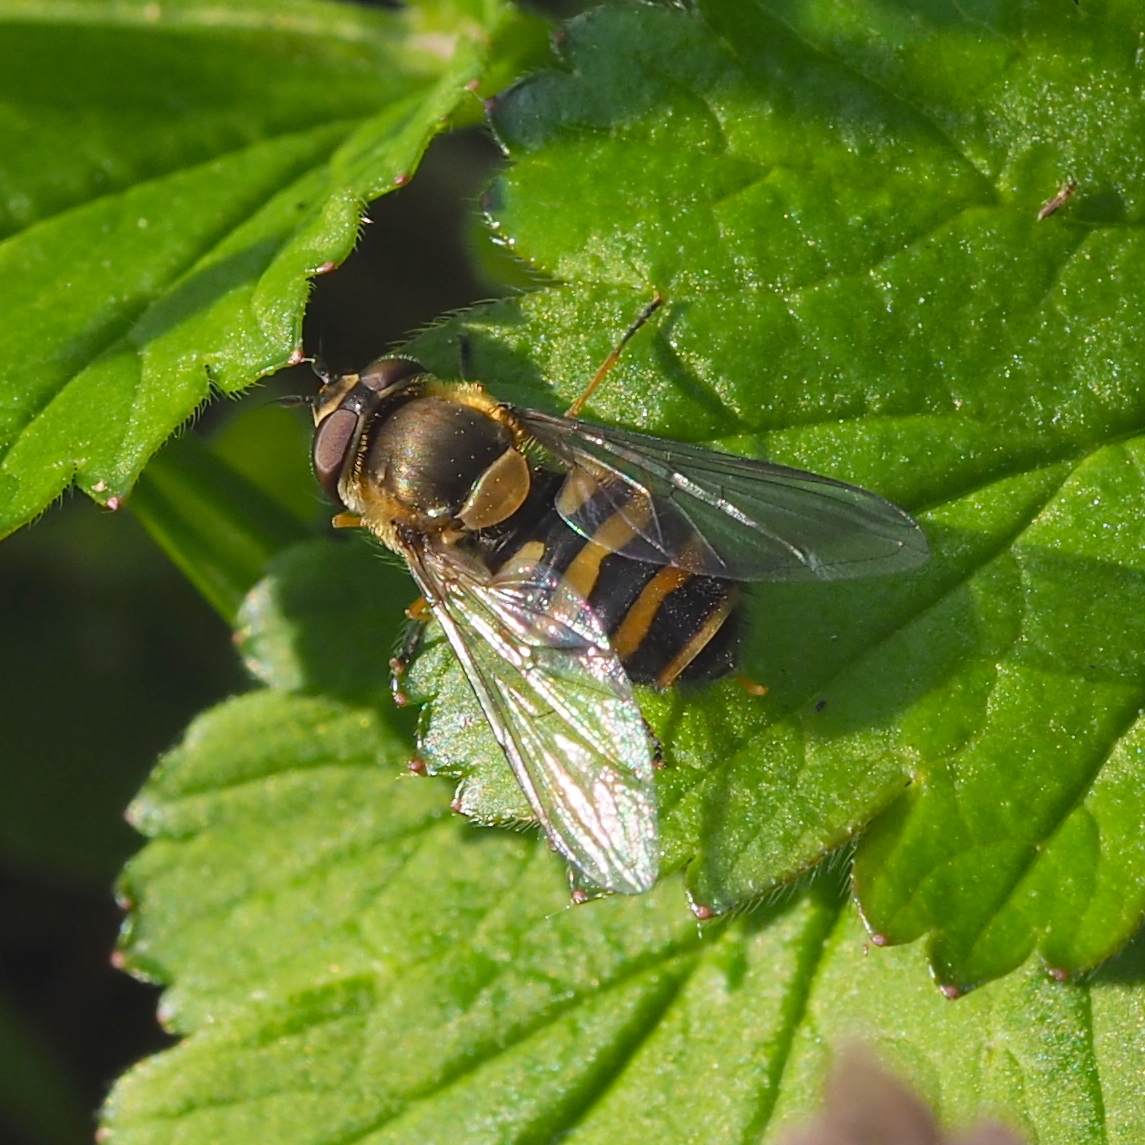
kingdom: Animalia
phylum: Arthropoda
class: Insecta
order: Diptera
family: Syrphidae
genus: Syrphus
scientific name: Syrphus torvus
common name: Hairy-eyed flower fly
